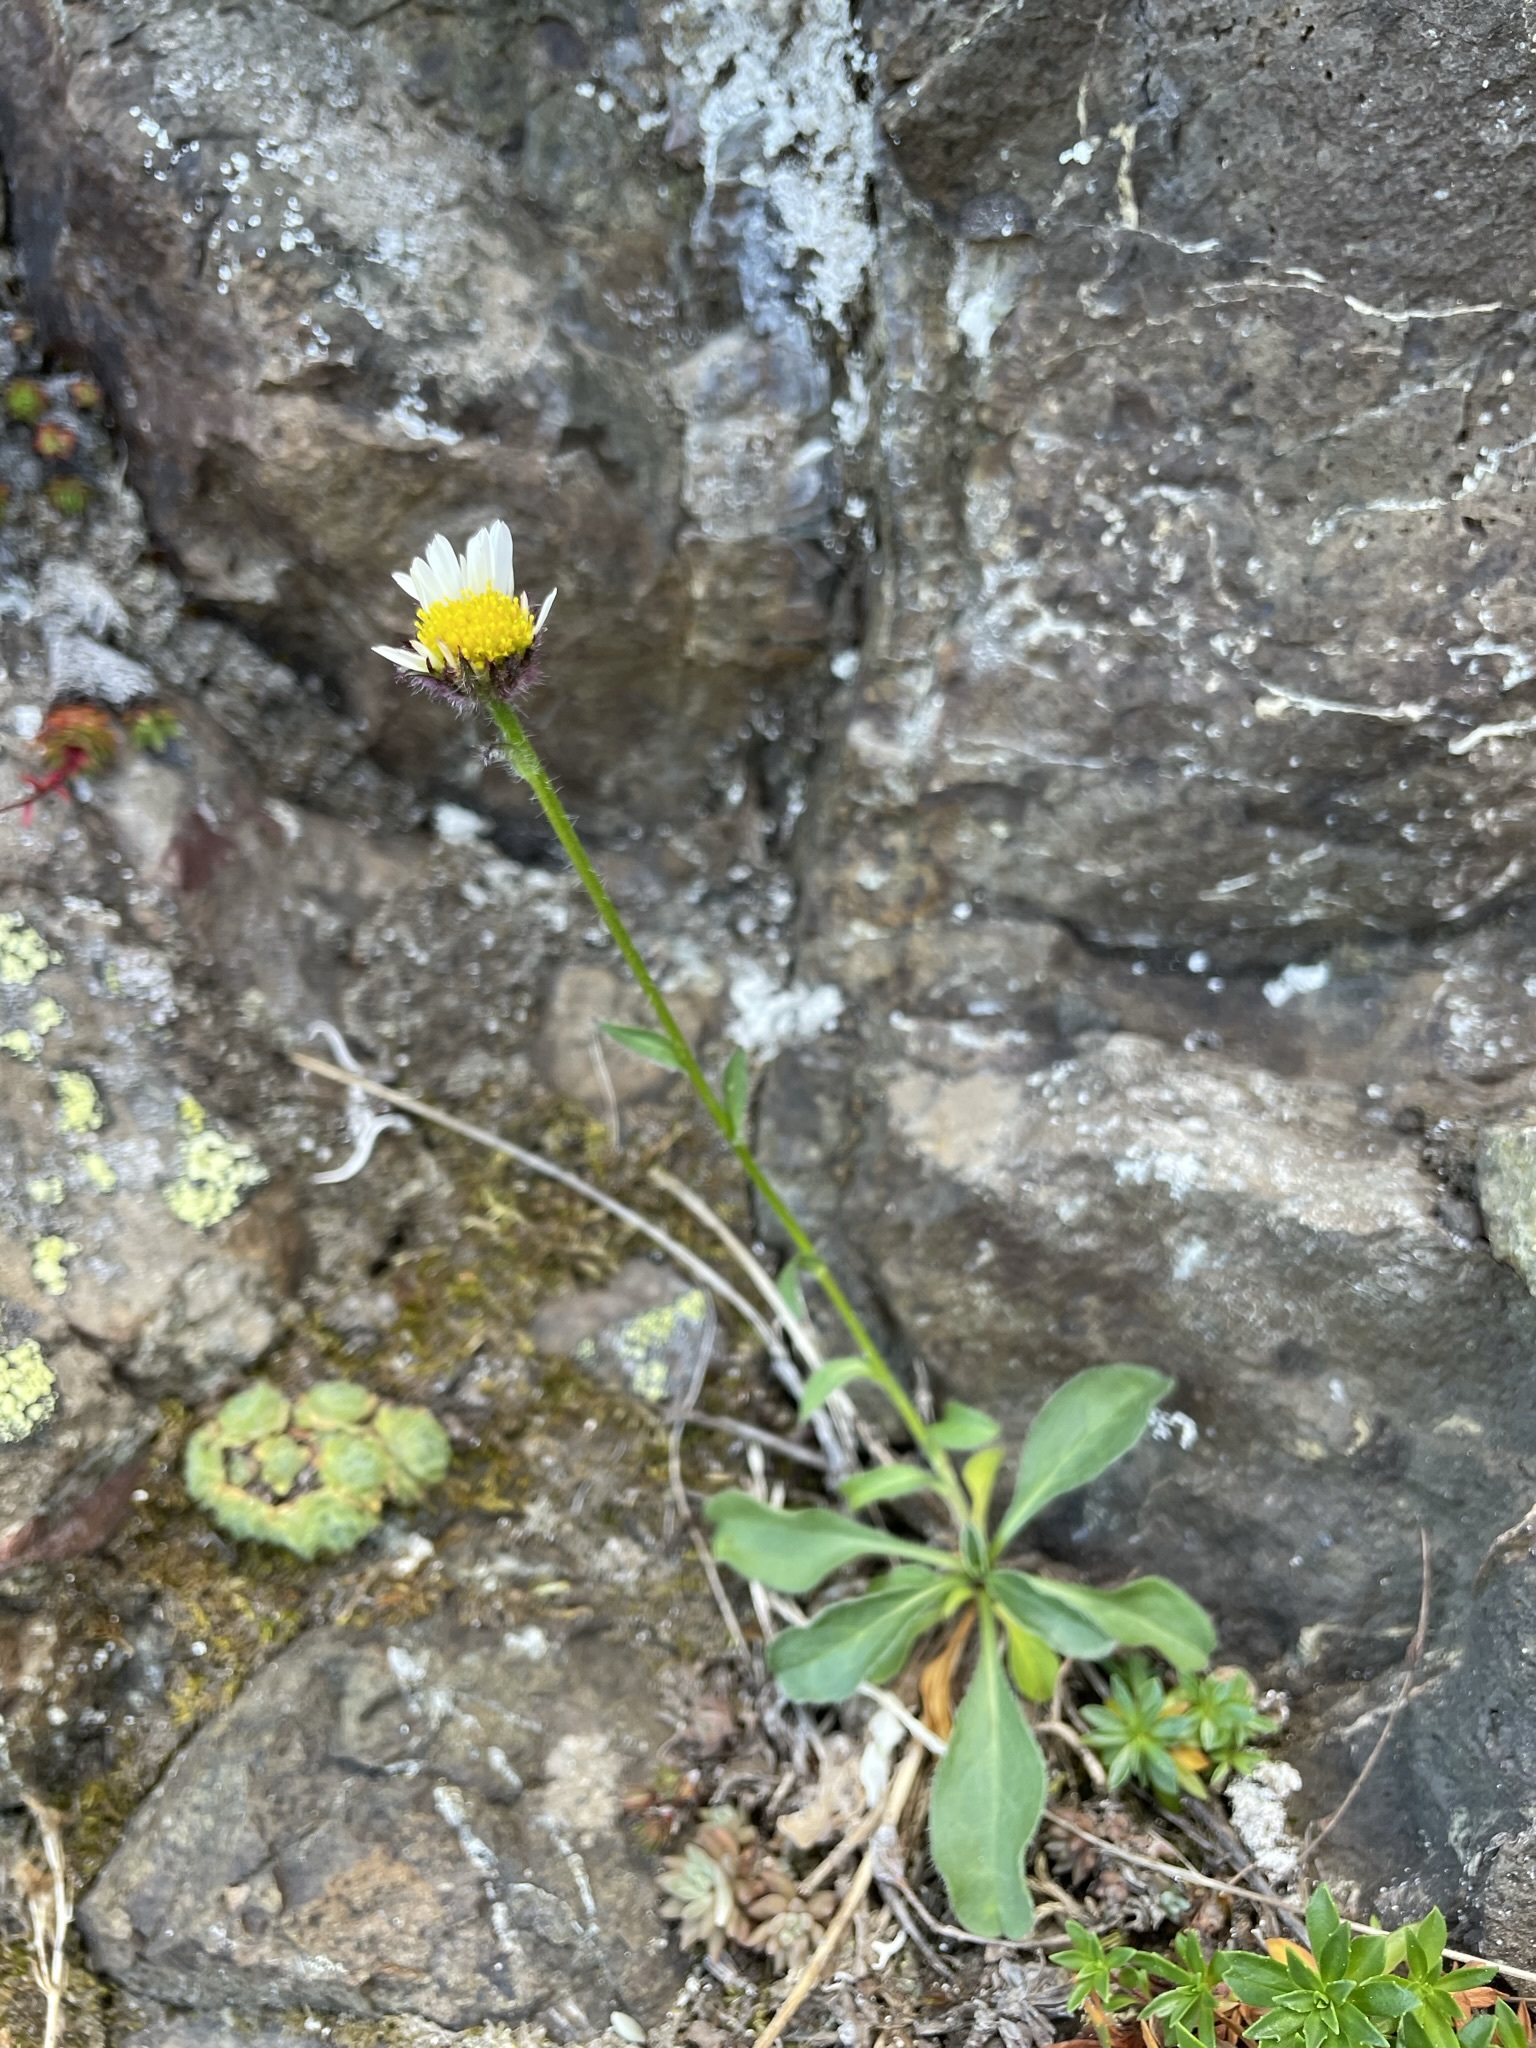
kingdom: Plantae
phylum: Tracheophyta
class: Magnoliopsida
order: Asterales
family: Asteraceae
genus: Erigeron
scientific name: Erigeron flettii
